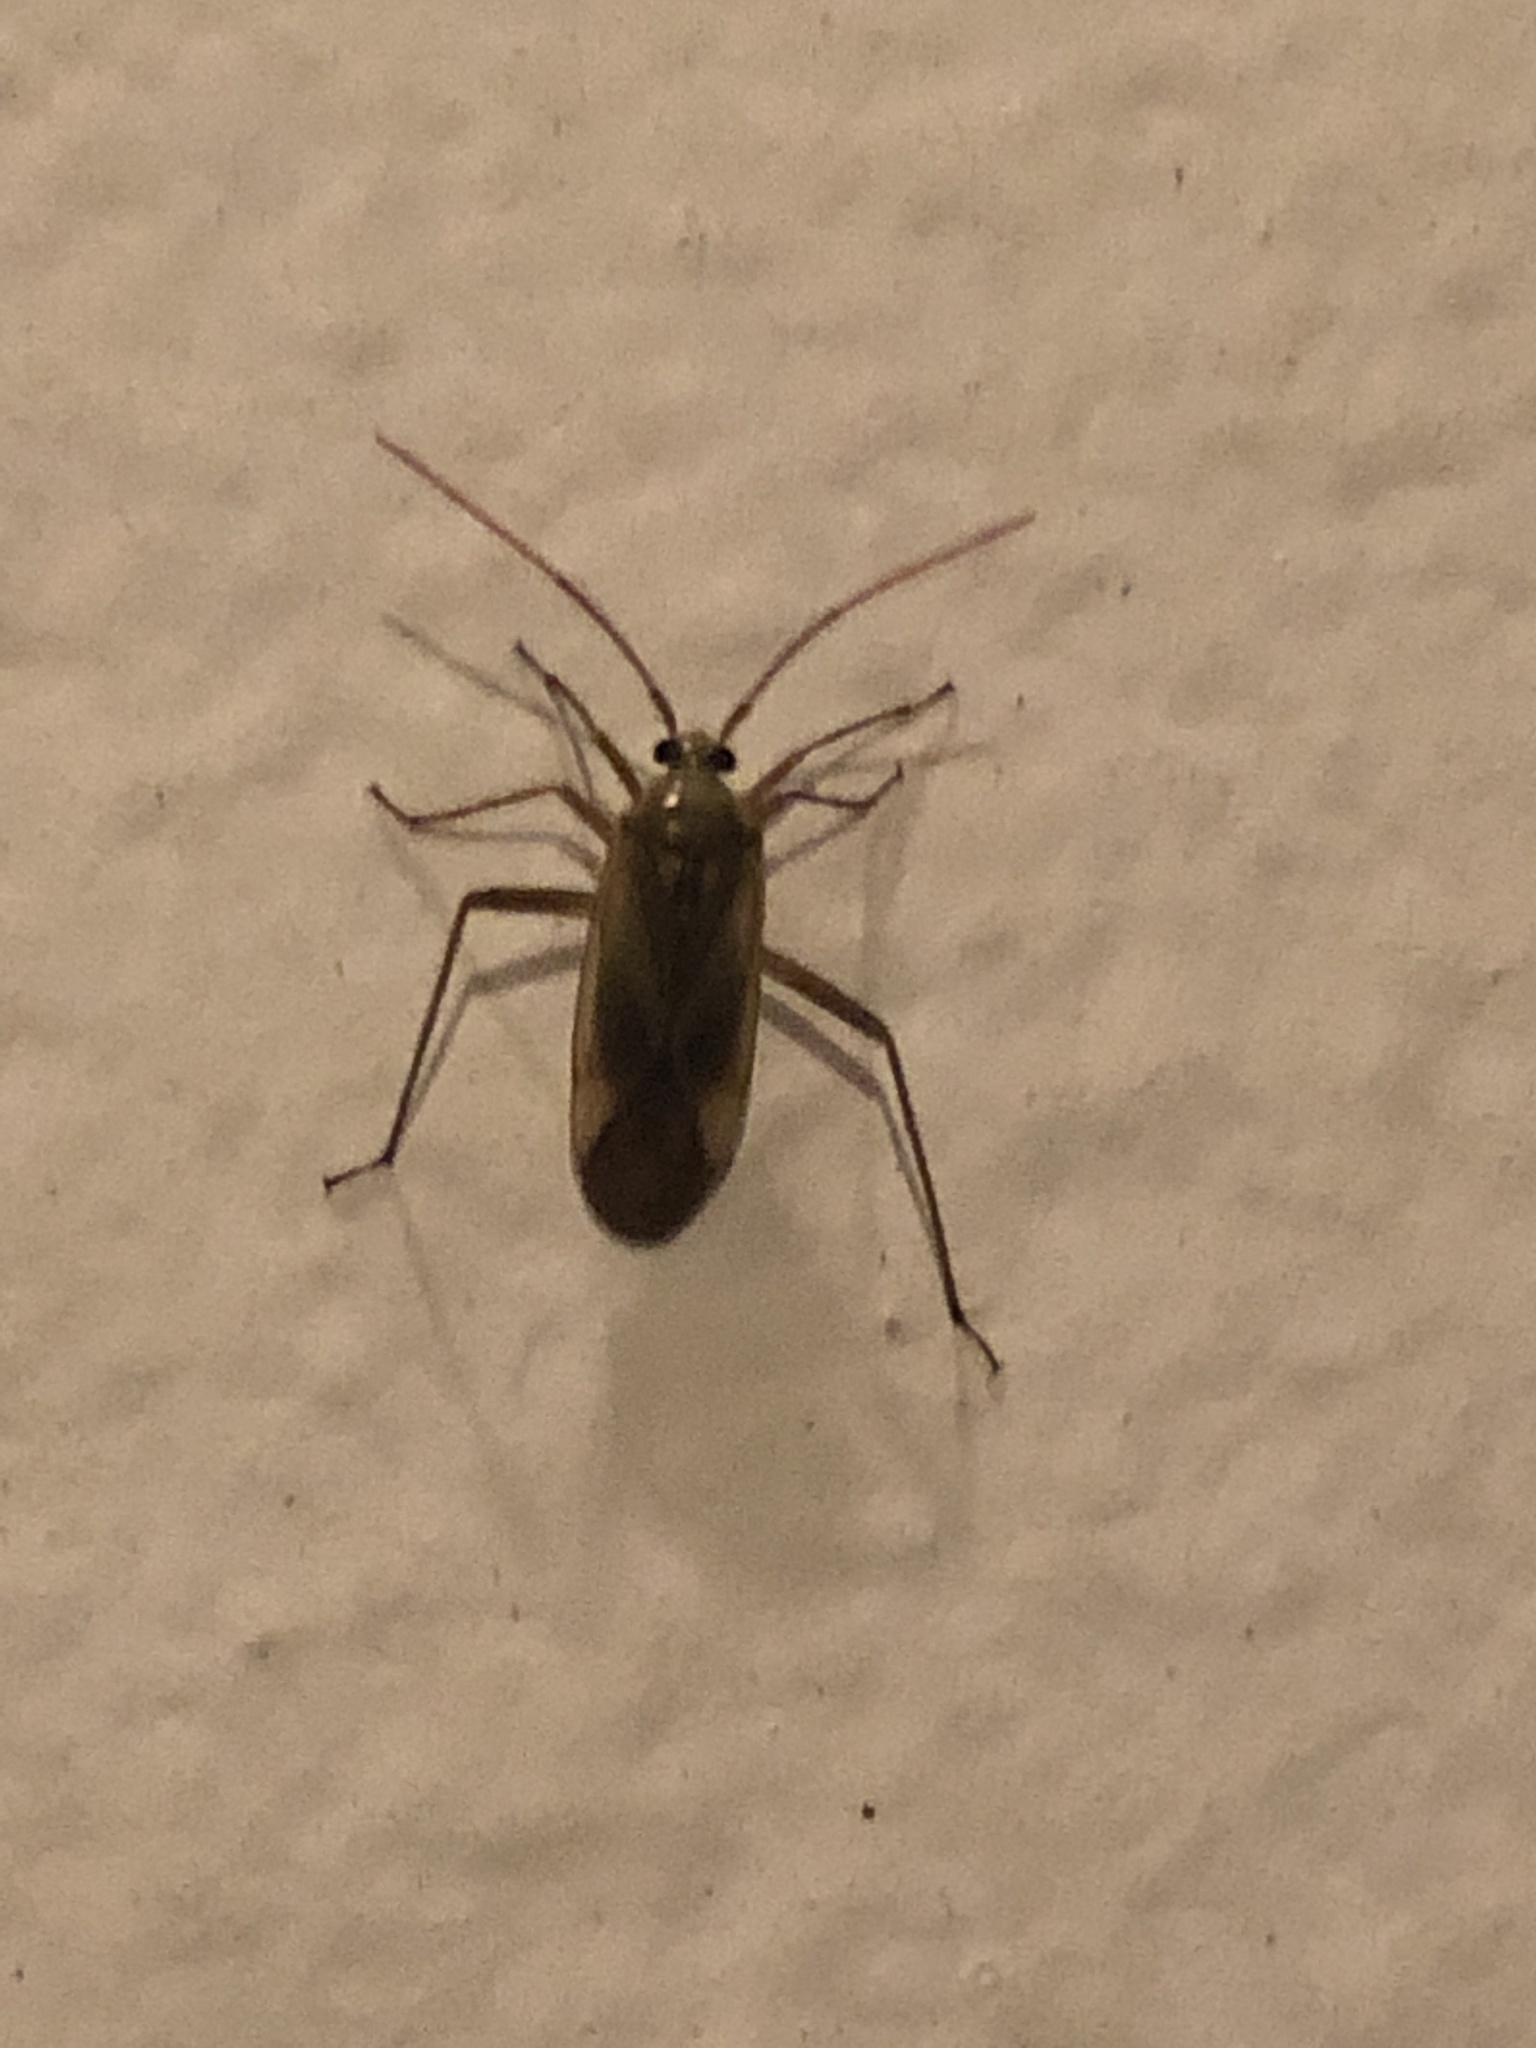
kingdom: Animalia
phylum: Arthropoda
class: Insecta
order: Hemiptera
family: Miridae
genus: Adelphocoris
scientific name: Adelphocoris lineolatus
